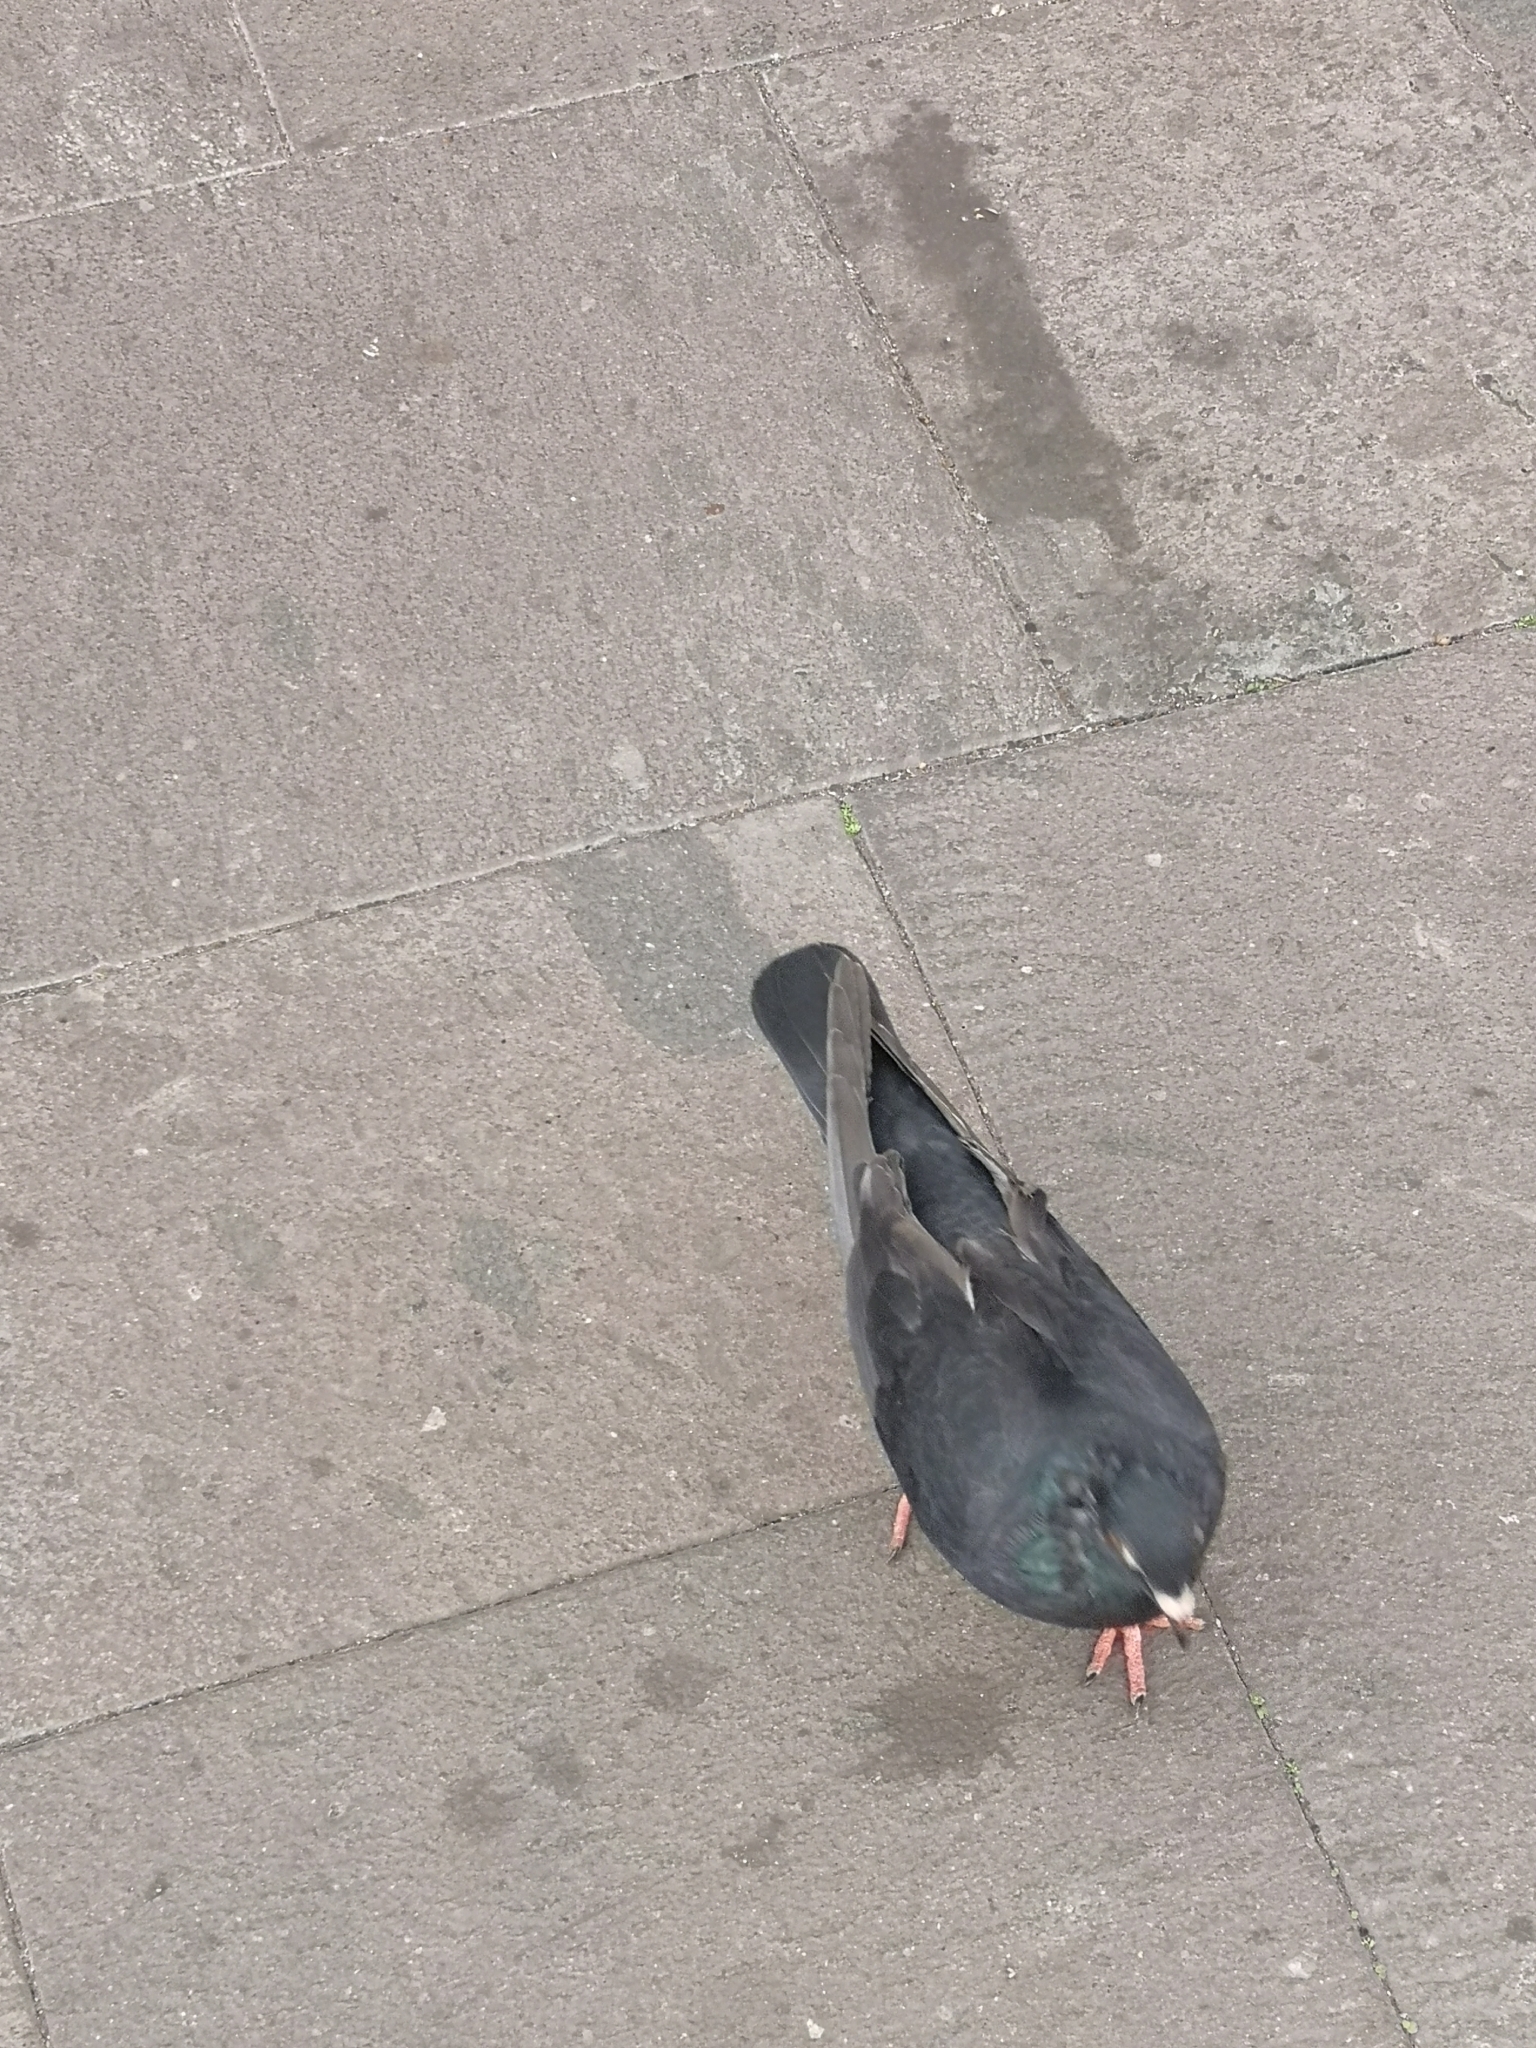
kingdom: Animalia
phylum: Chordata
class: Aves
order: Columbiformes
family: Columbidae
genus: Columba
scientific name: Columba livia
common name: Rock pigeon
